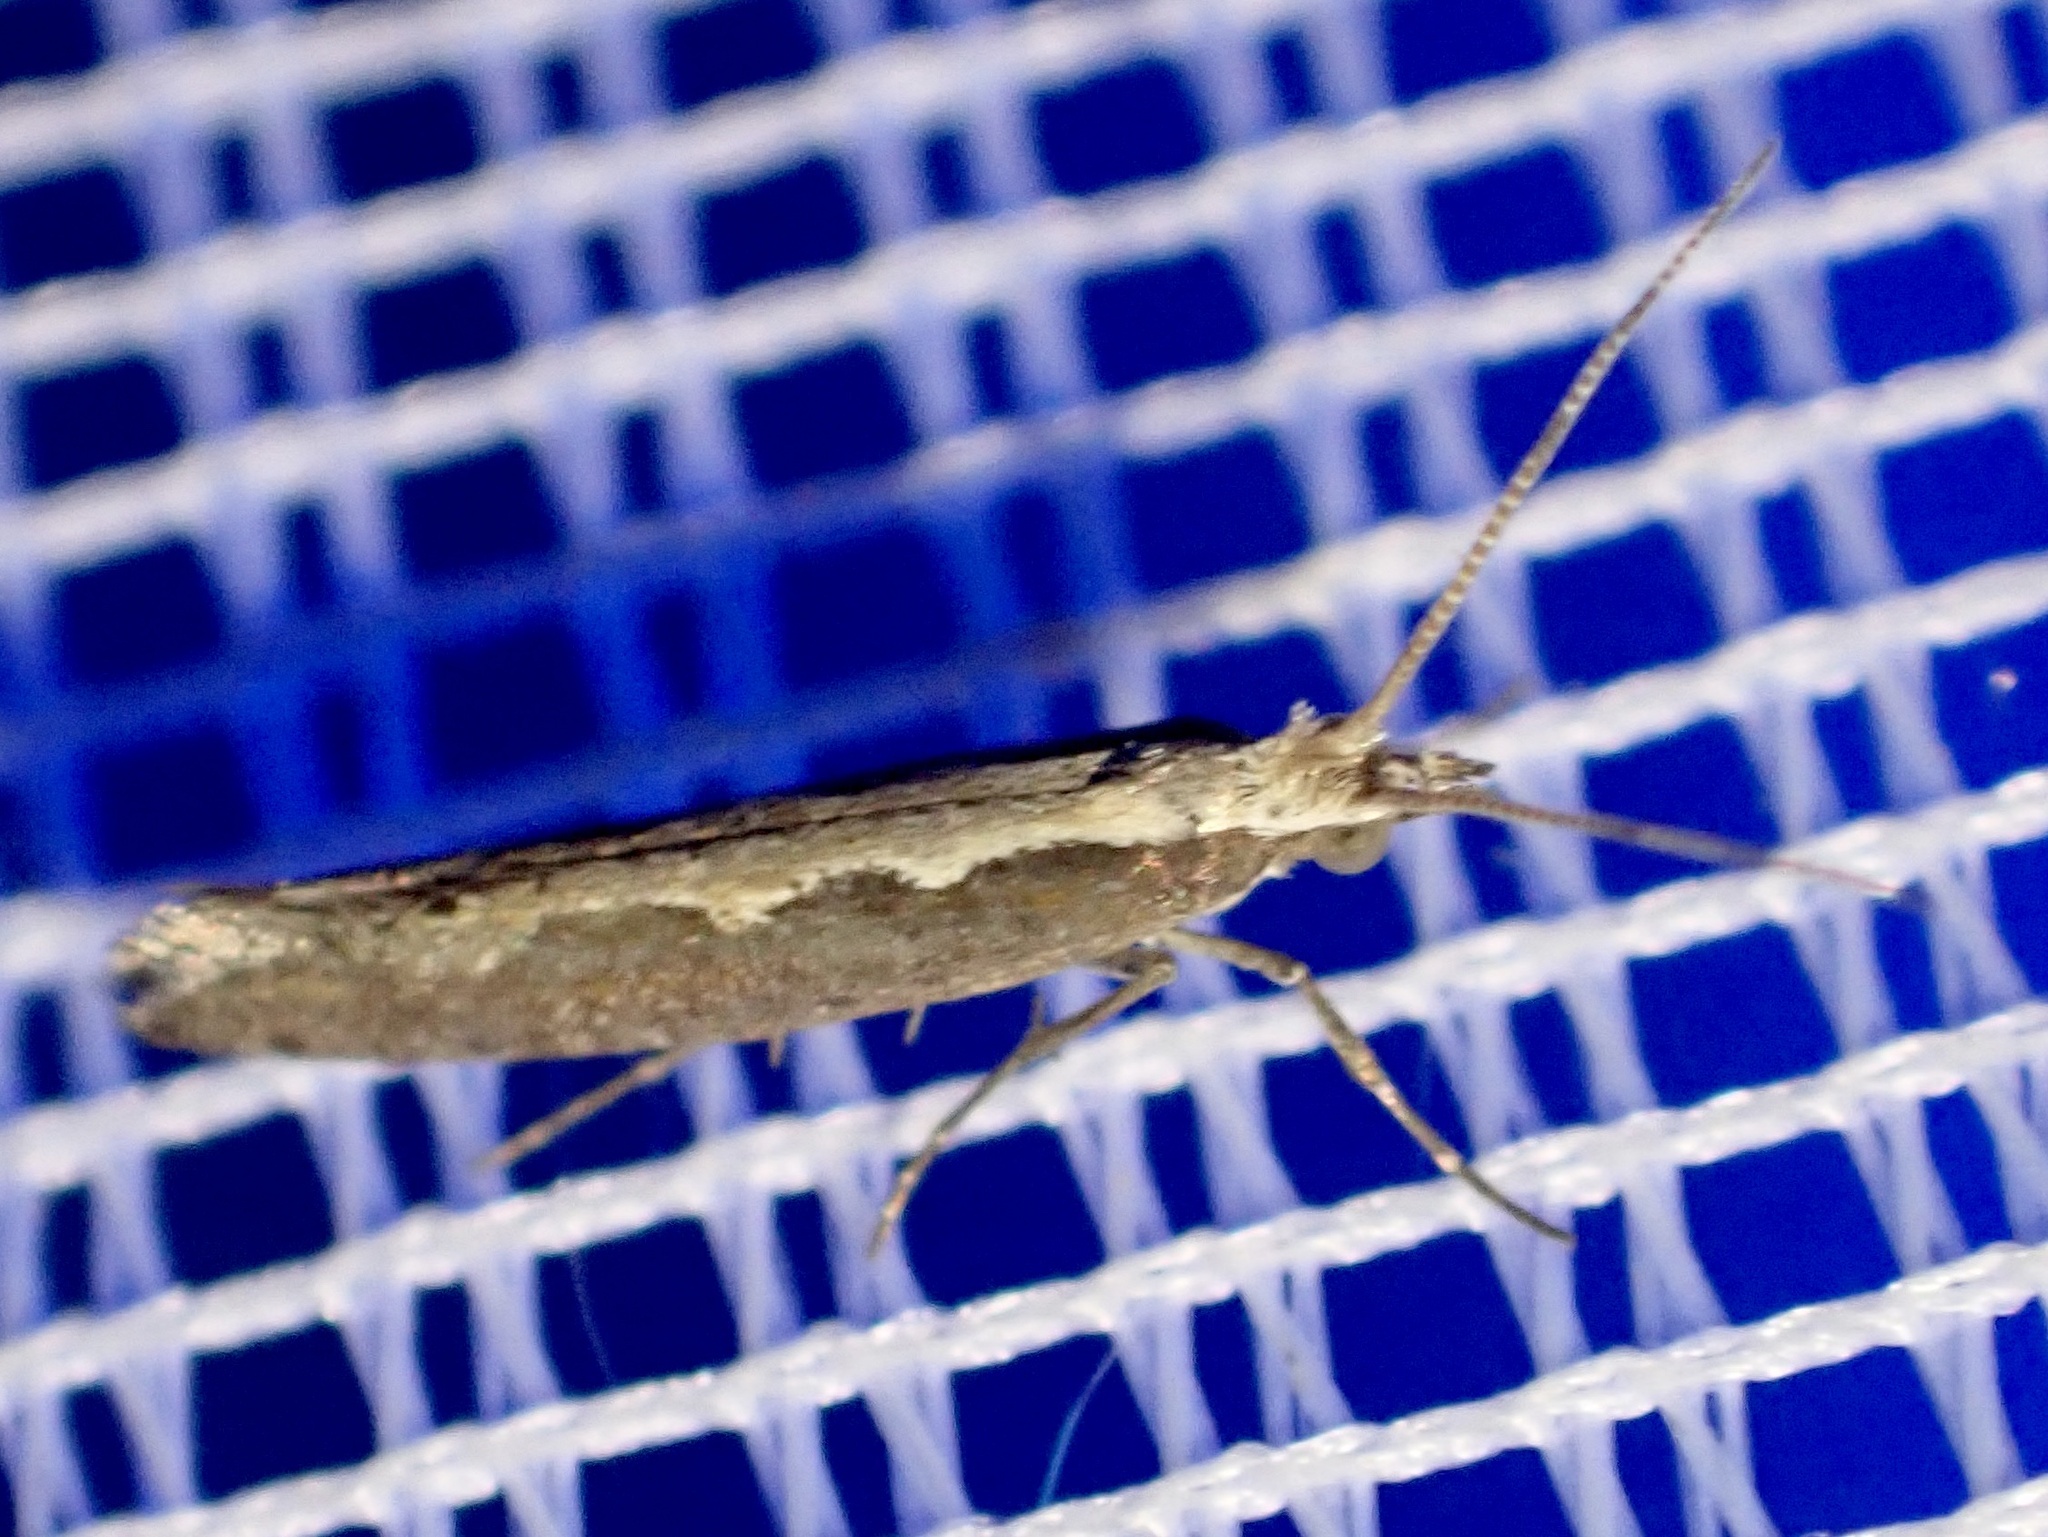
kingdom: Animalia
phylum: Arthropoda
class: Insecta
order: Lepidoptera
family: Plutellidae
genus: Plutella
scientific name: Plutella xylostella
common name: Diamond-back moth
